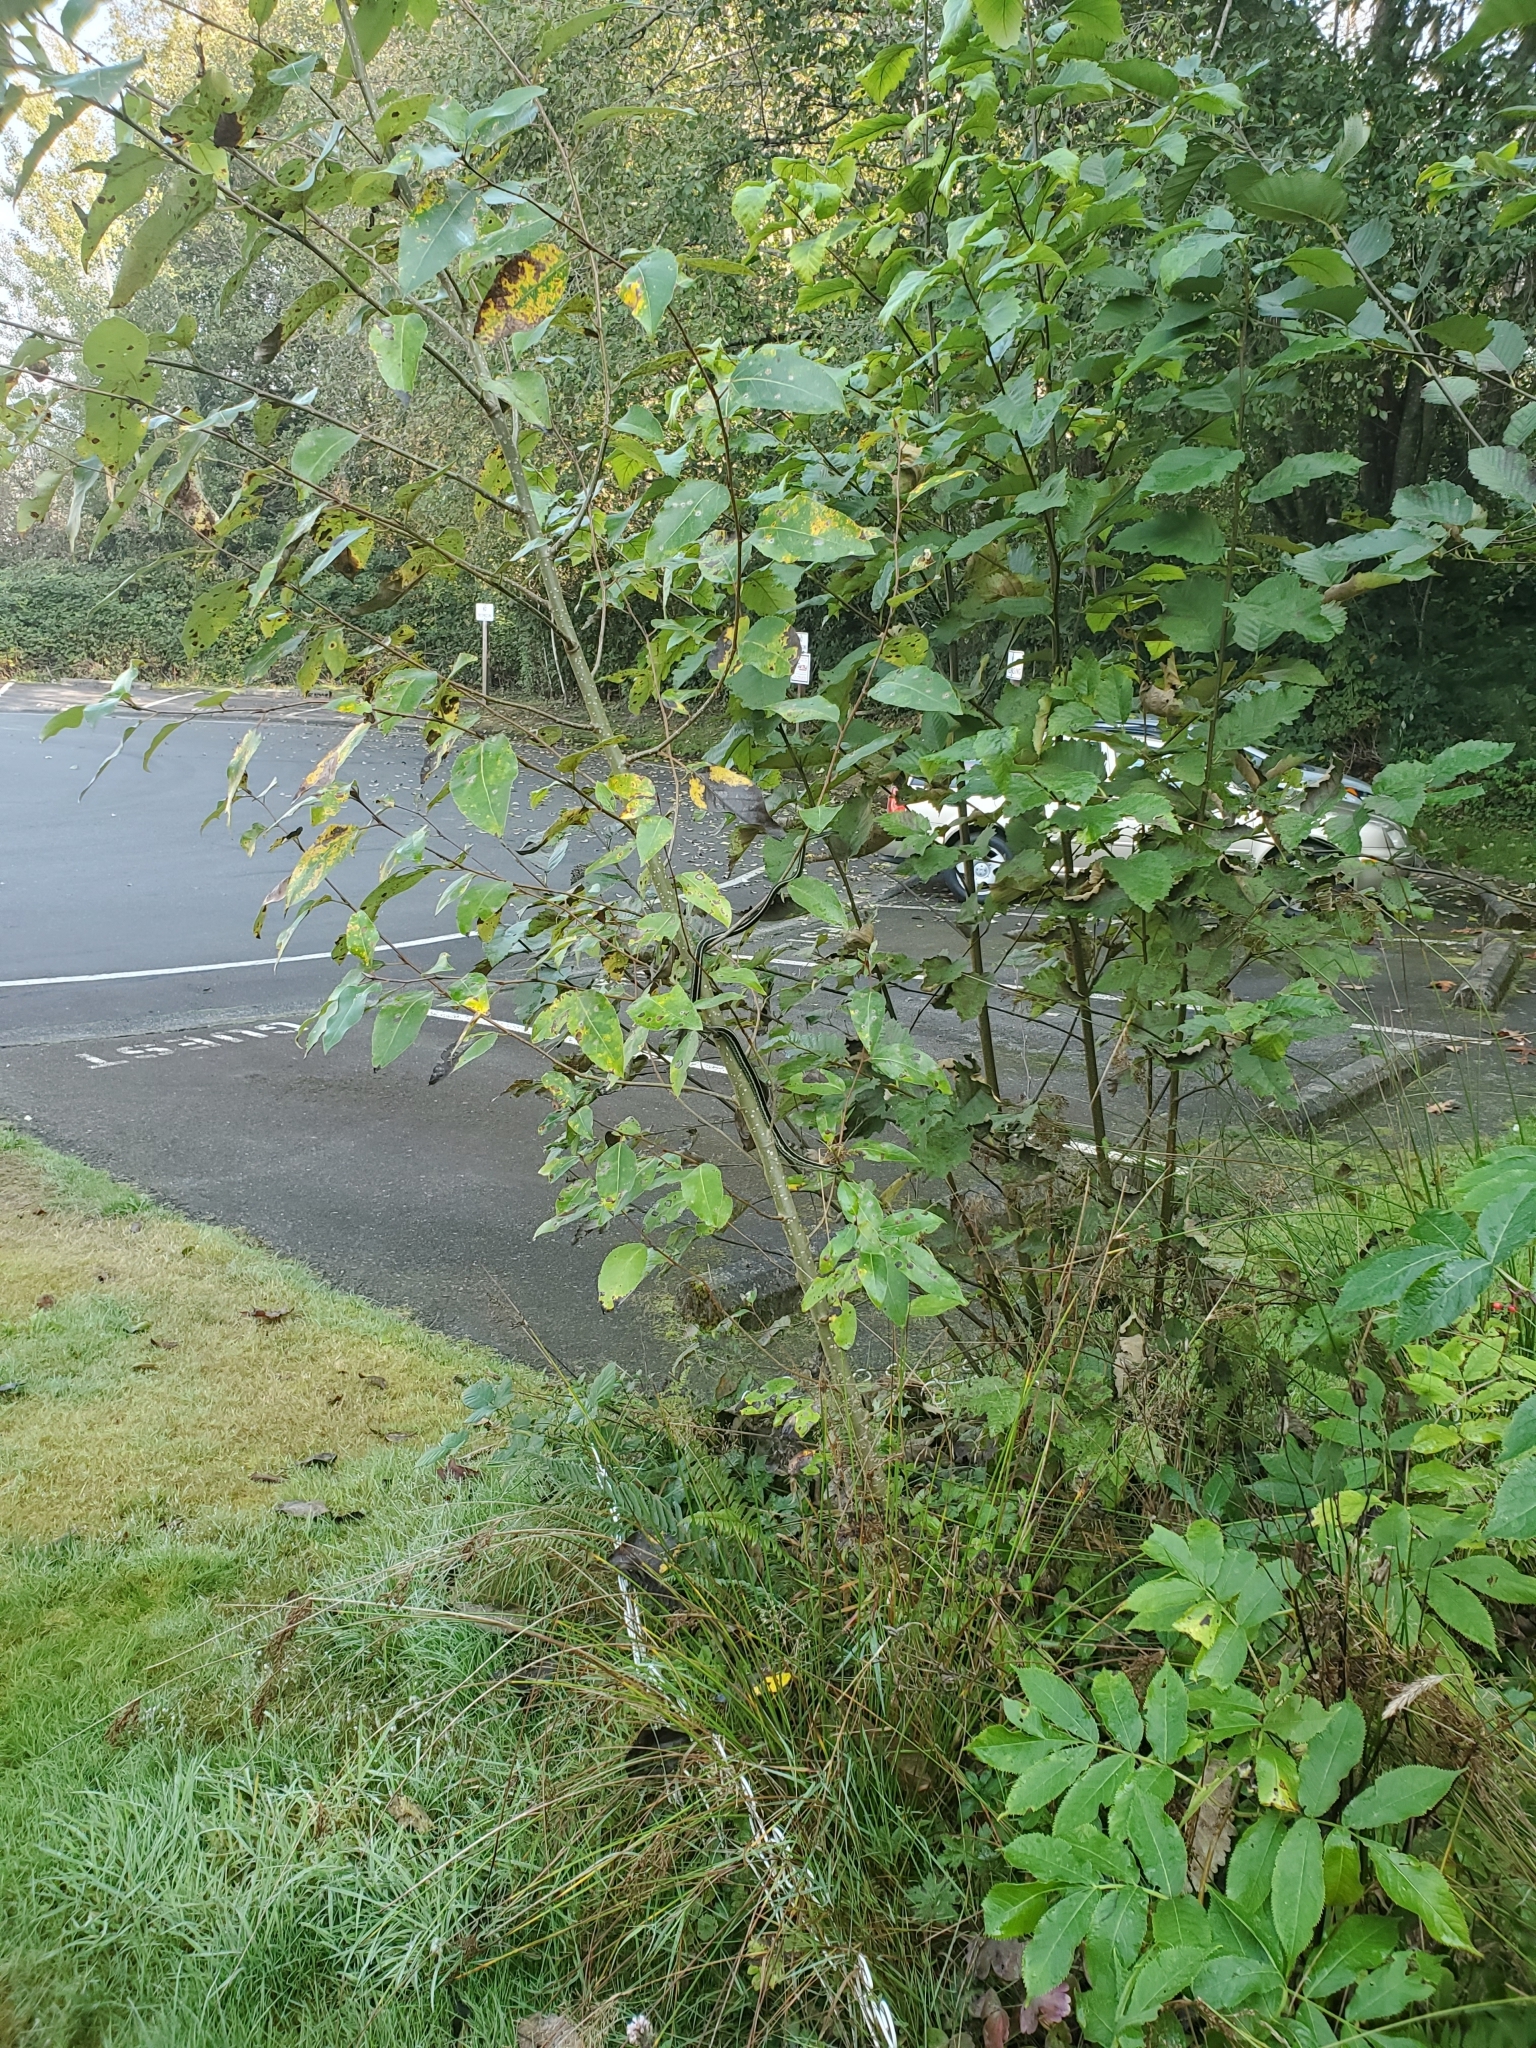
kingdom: Animalia
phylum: Chordata
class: Squamata
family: Colubridae
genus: Thamnophis
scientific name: Thamnophis sirtalis
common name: Common garter snake
